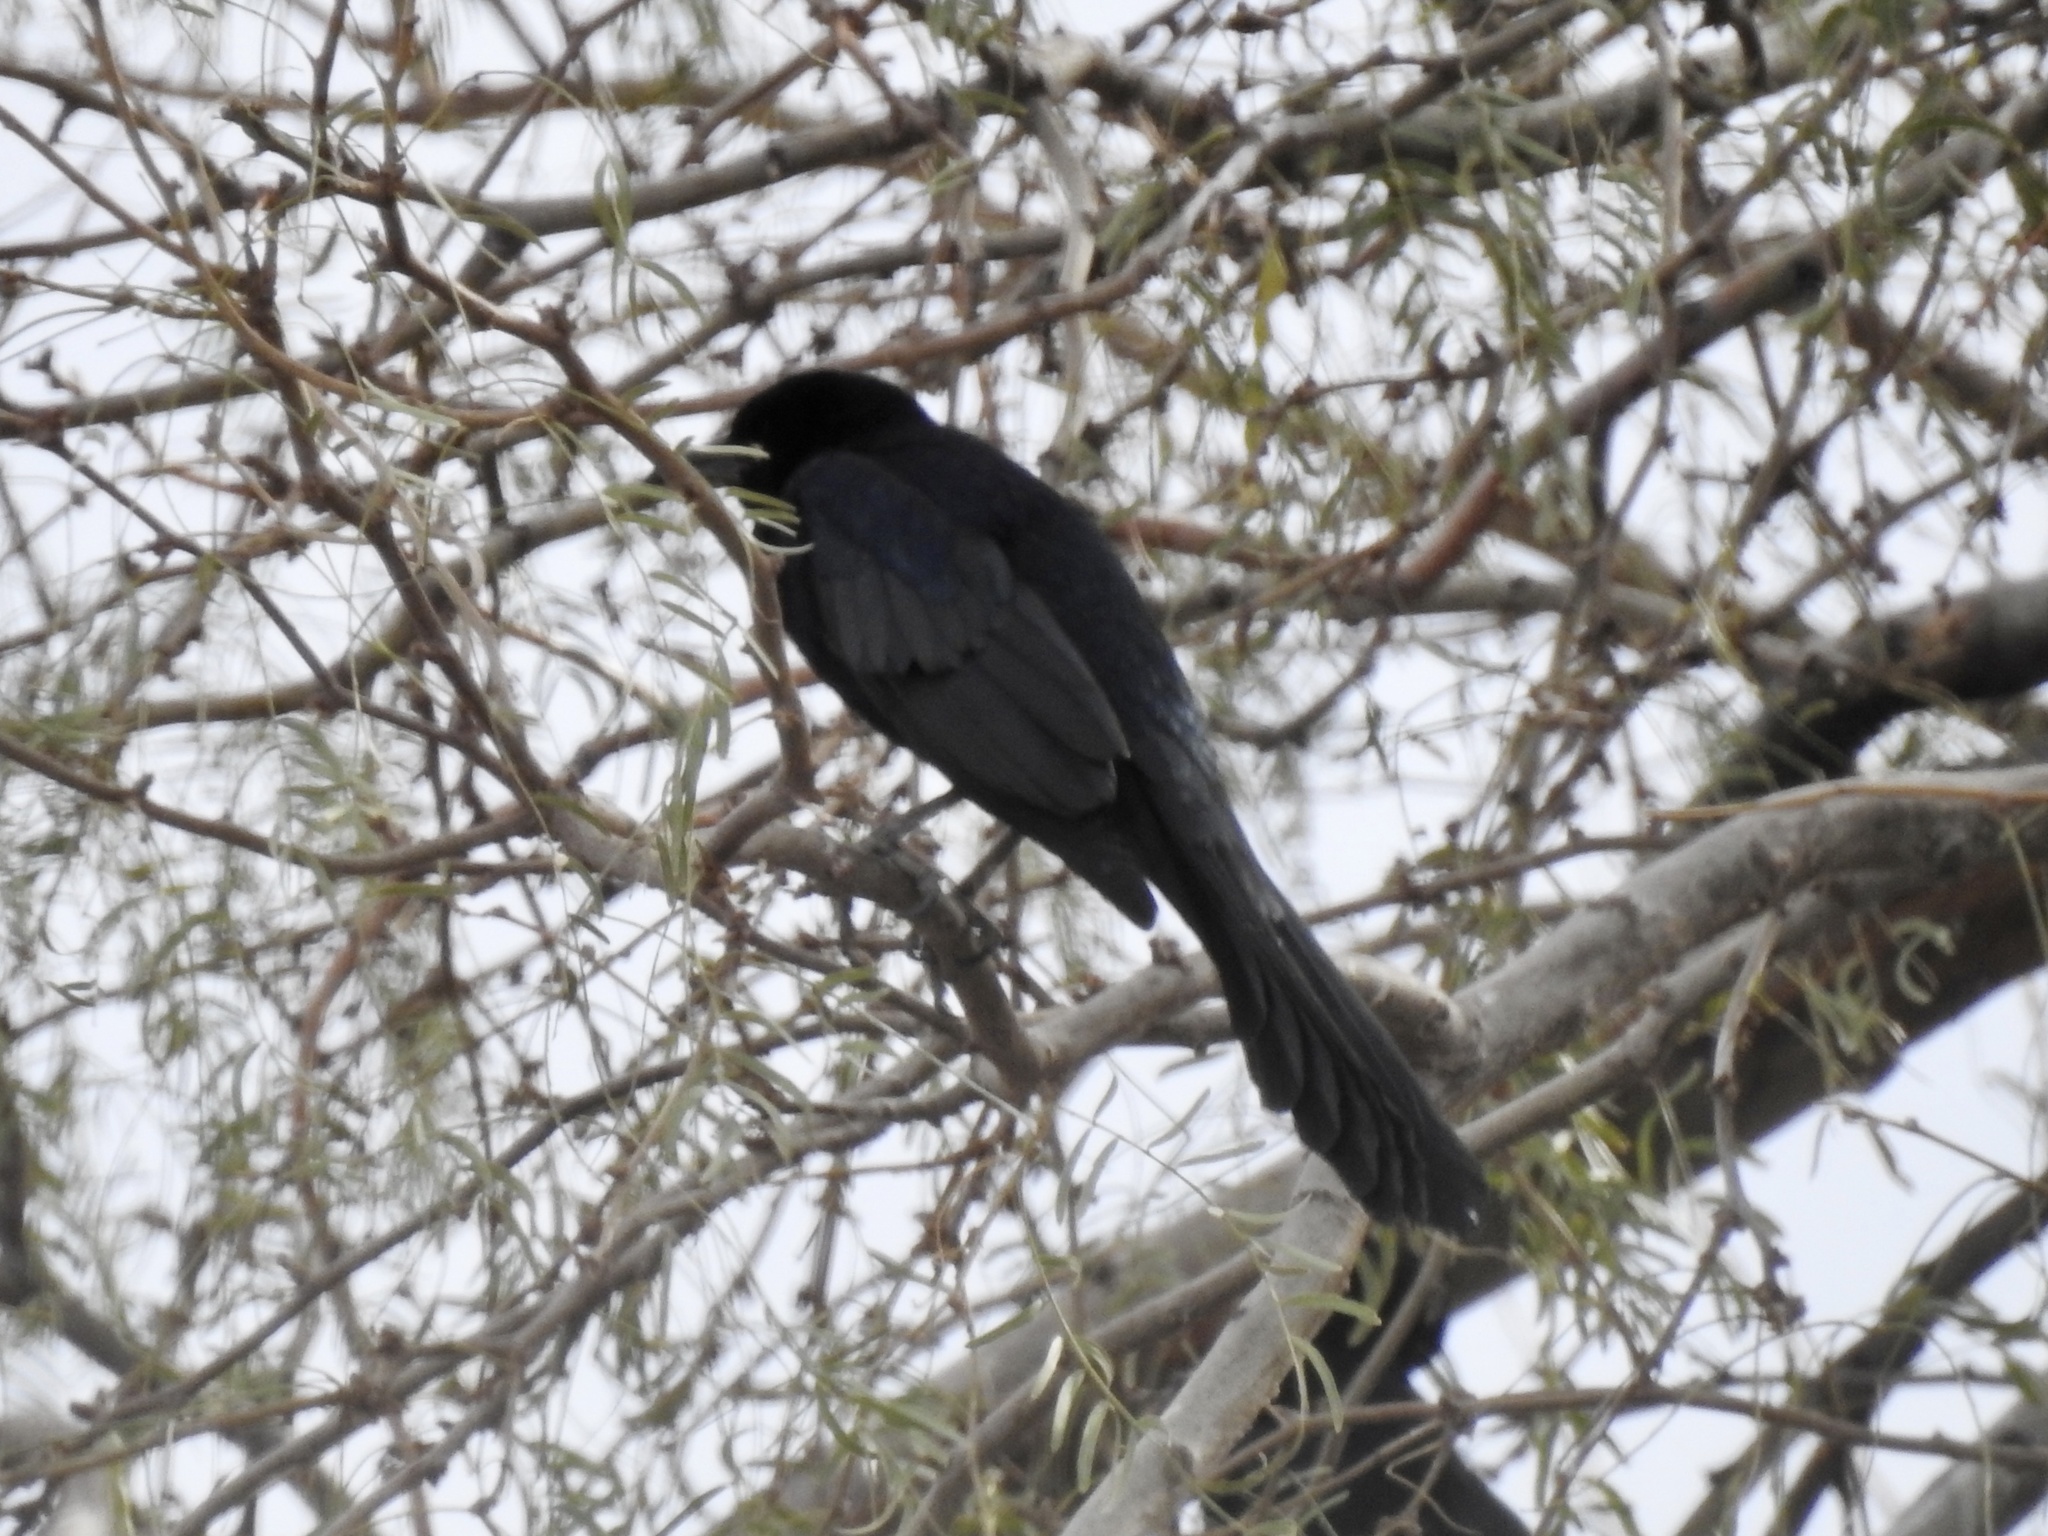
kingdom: Animalia
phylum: Chordata
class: Aves
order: Passeriformes
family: Icteridae
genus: Quiscalus
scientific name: Quiscalus mexicanus
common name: Great-tailed grackle
